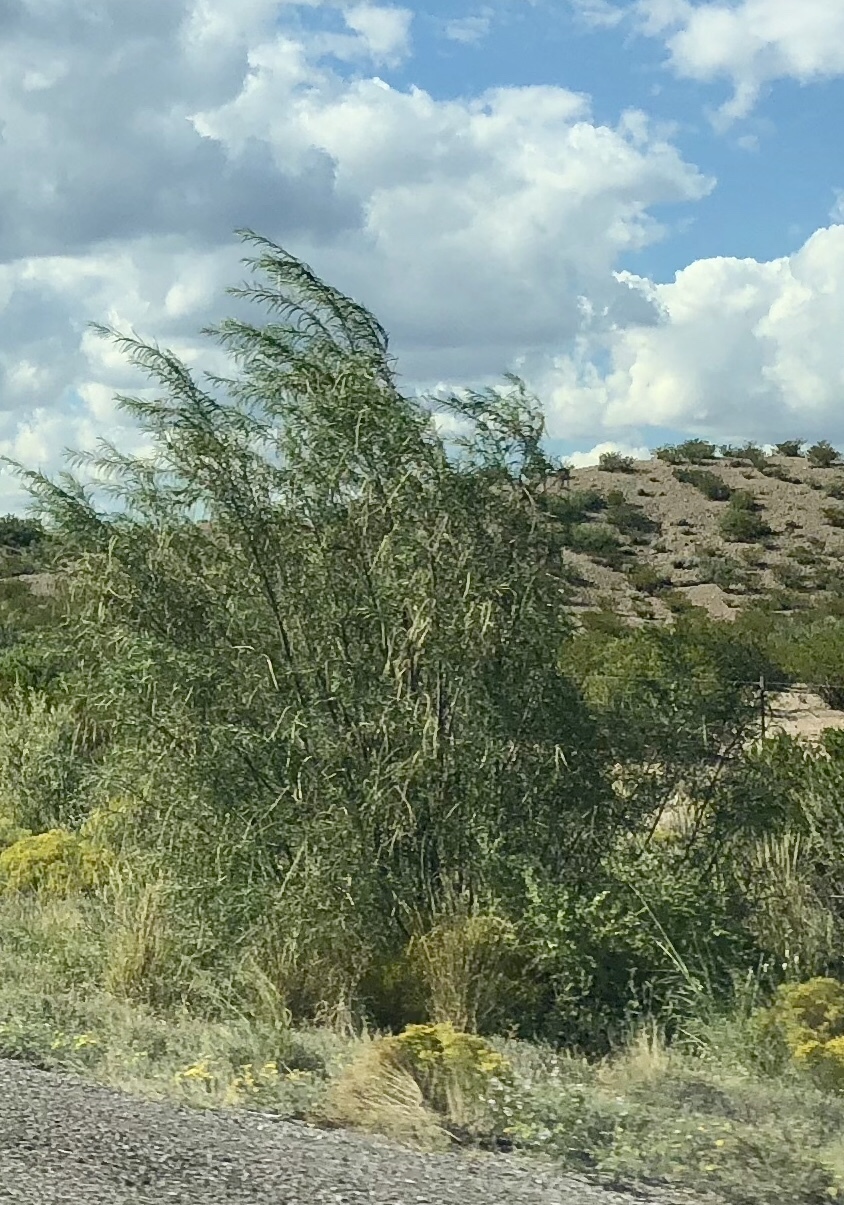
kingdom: Plantae
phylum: Tracheophyta
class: Magnoliopsida
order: Lamiales
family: Bignoniaceae
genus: Chilopsis
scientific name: Chilopsis linearis
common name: Desert-willow
